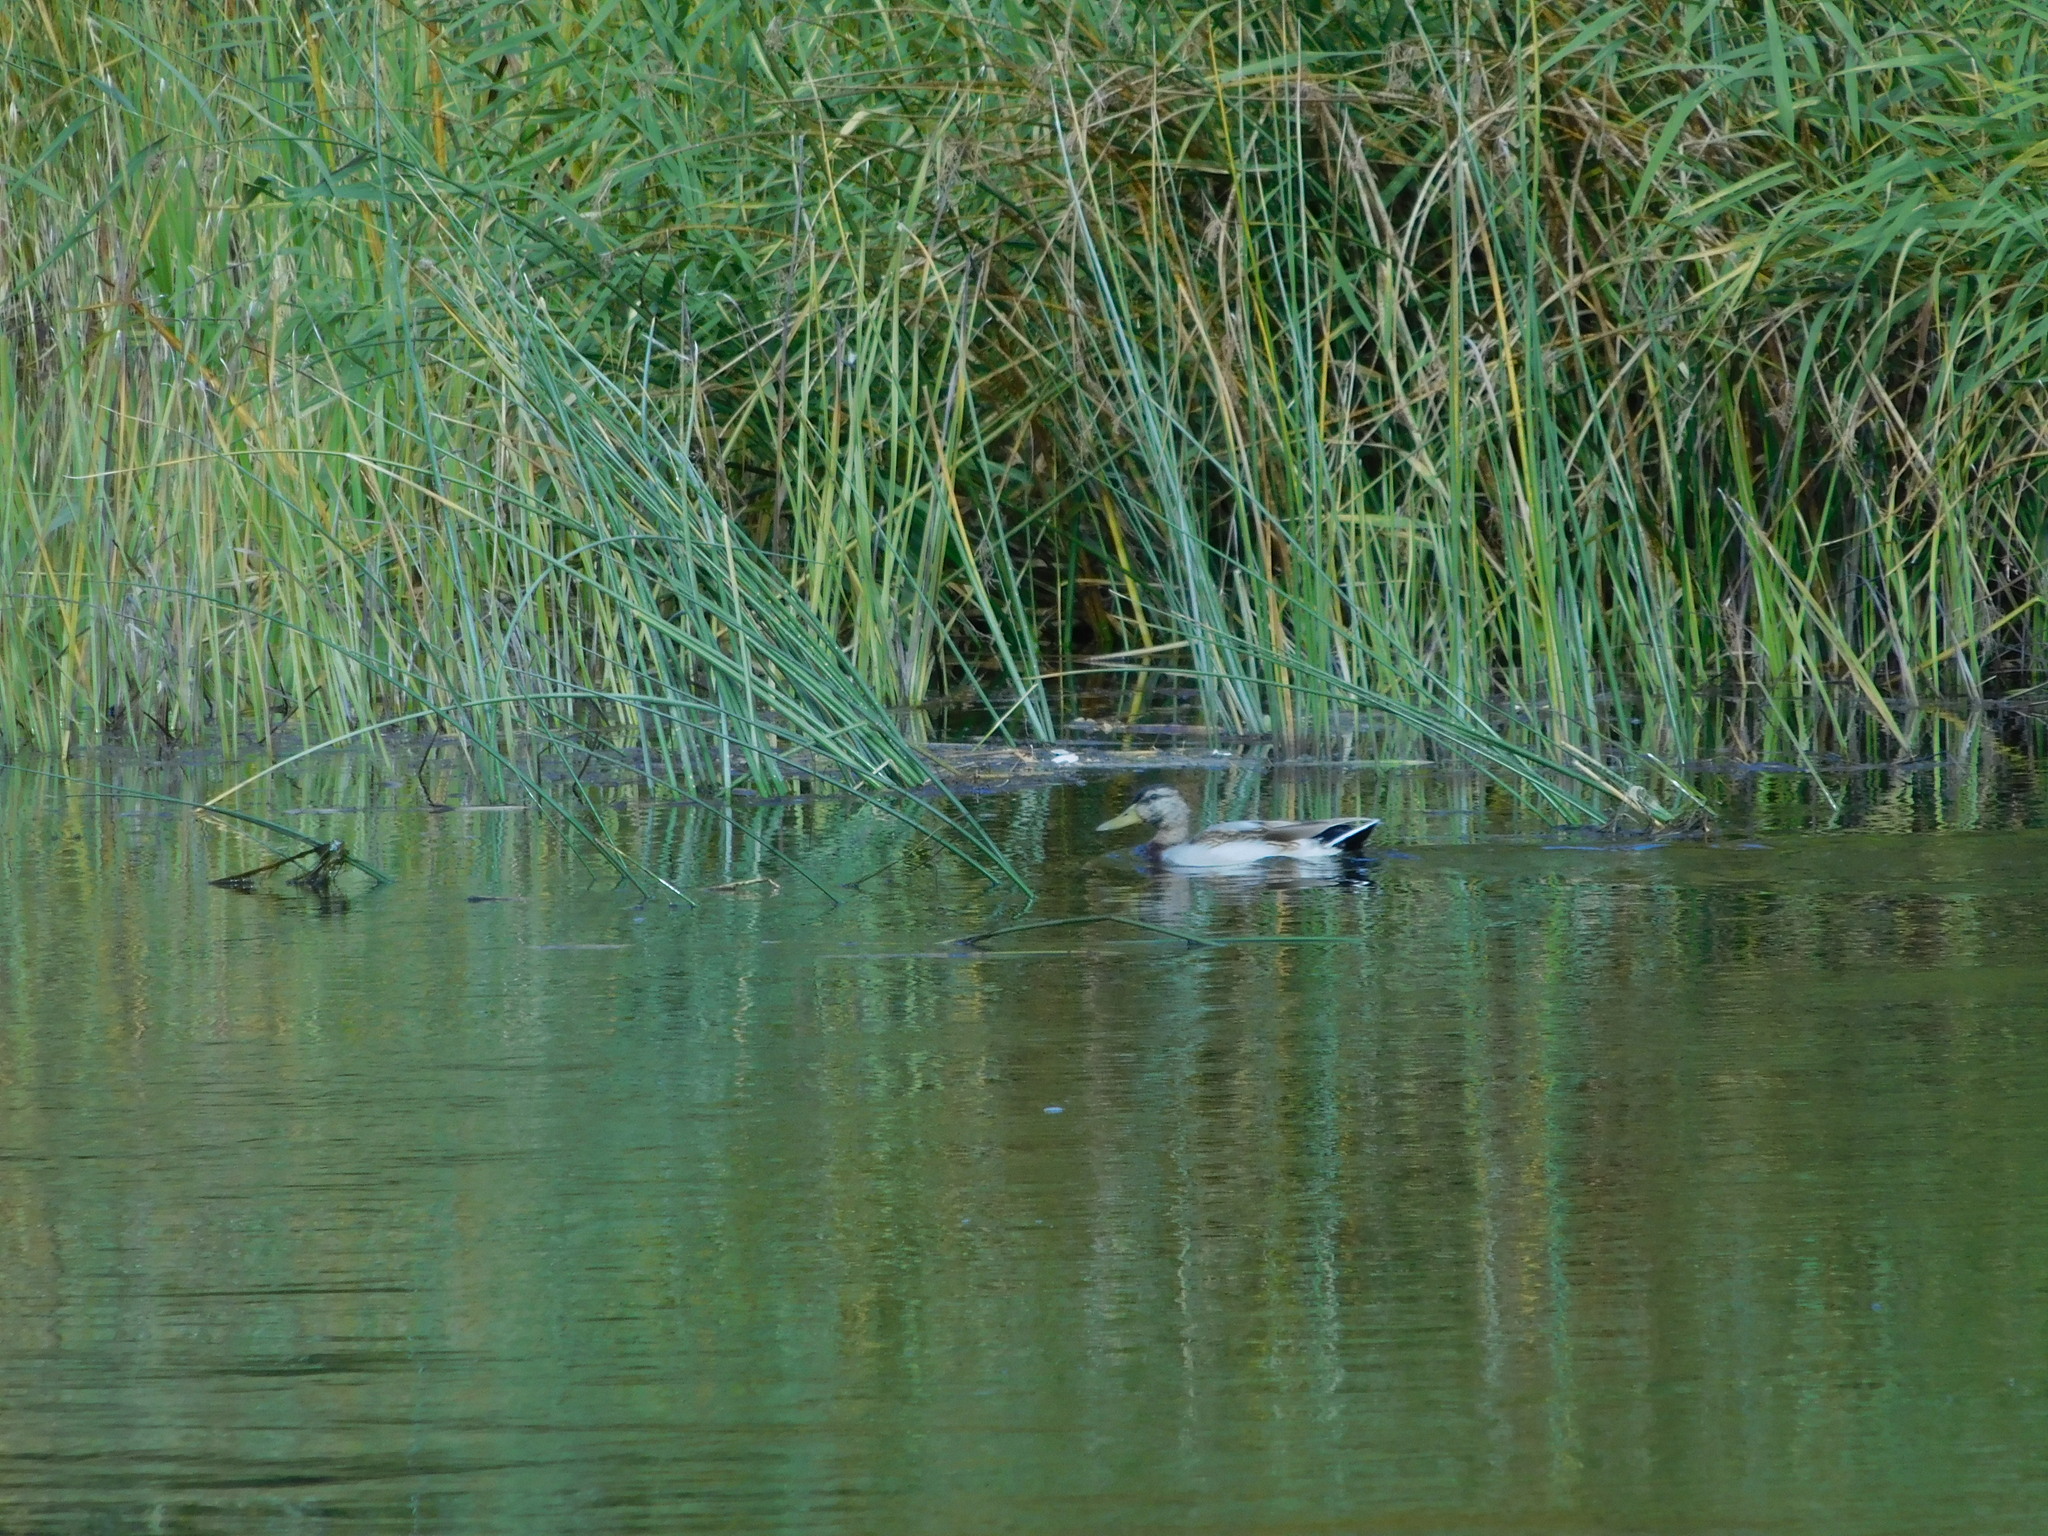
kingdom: Animalia
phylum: Chordata
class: Aves
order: Anseriformes
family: Anatidae
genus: Anas
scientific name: Anas platyrhynchos
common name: Mallard
